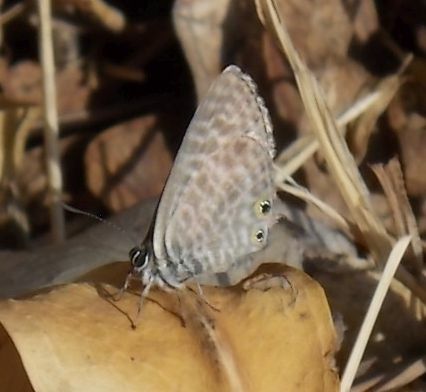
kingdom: Animalia
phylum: Arthropoda
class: Insecta
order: Lepidoptera
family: Lycaenidae
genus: Leptotes
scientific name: Leptotes pirithous
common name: Lang's short-tailed blue
